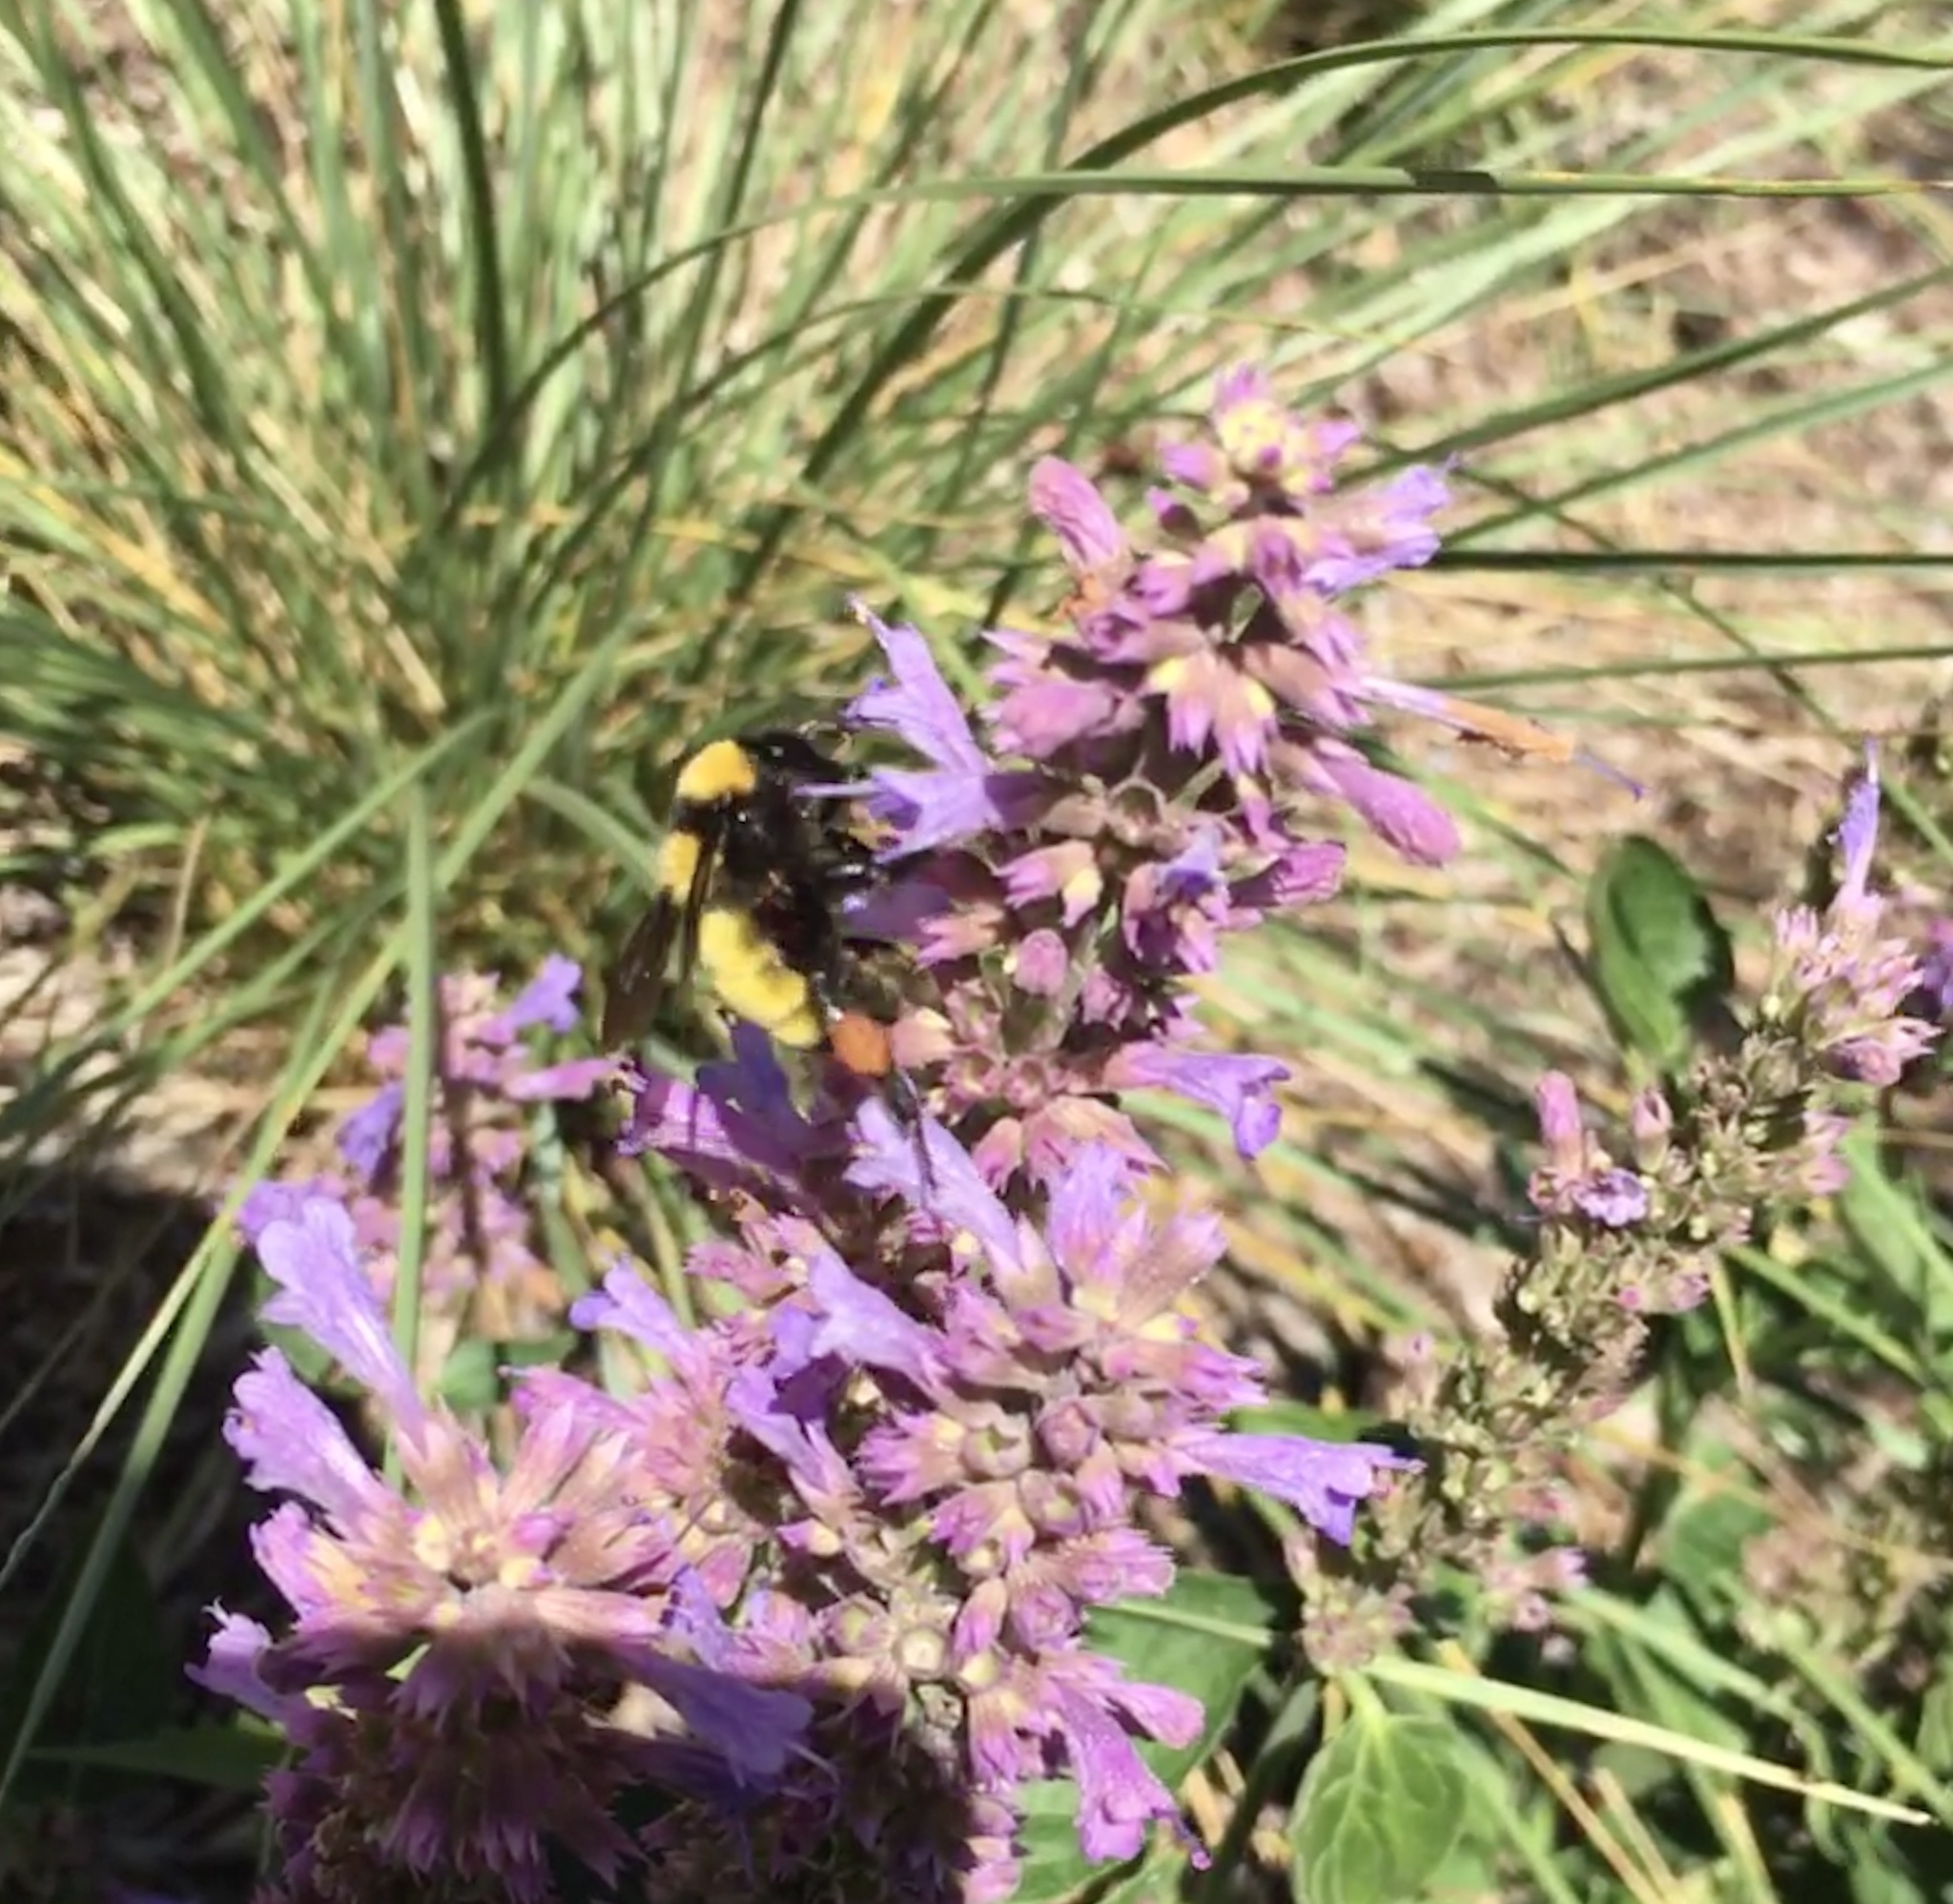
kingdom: Animalia
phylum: Arthropoda
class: Insecta
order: Hymenoptera
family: Apidae
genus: Bombus
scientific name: Bombus sonorus
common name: Sonoran bumble bee
